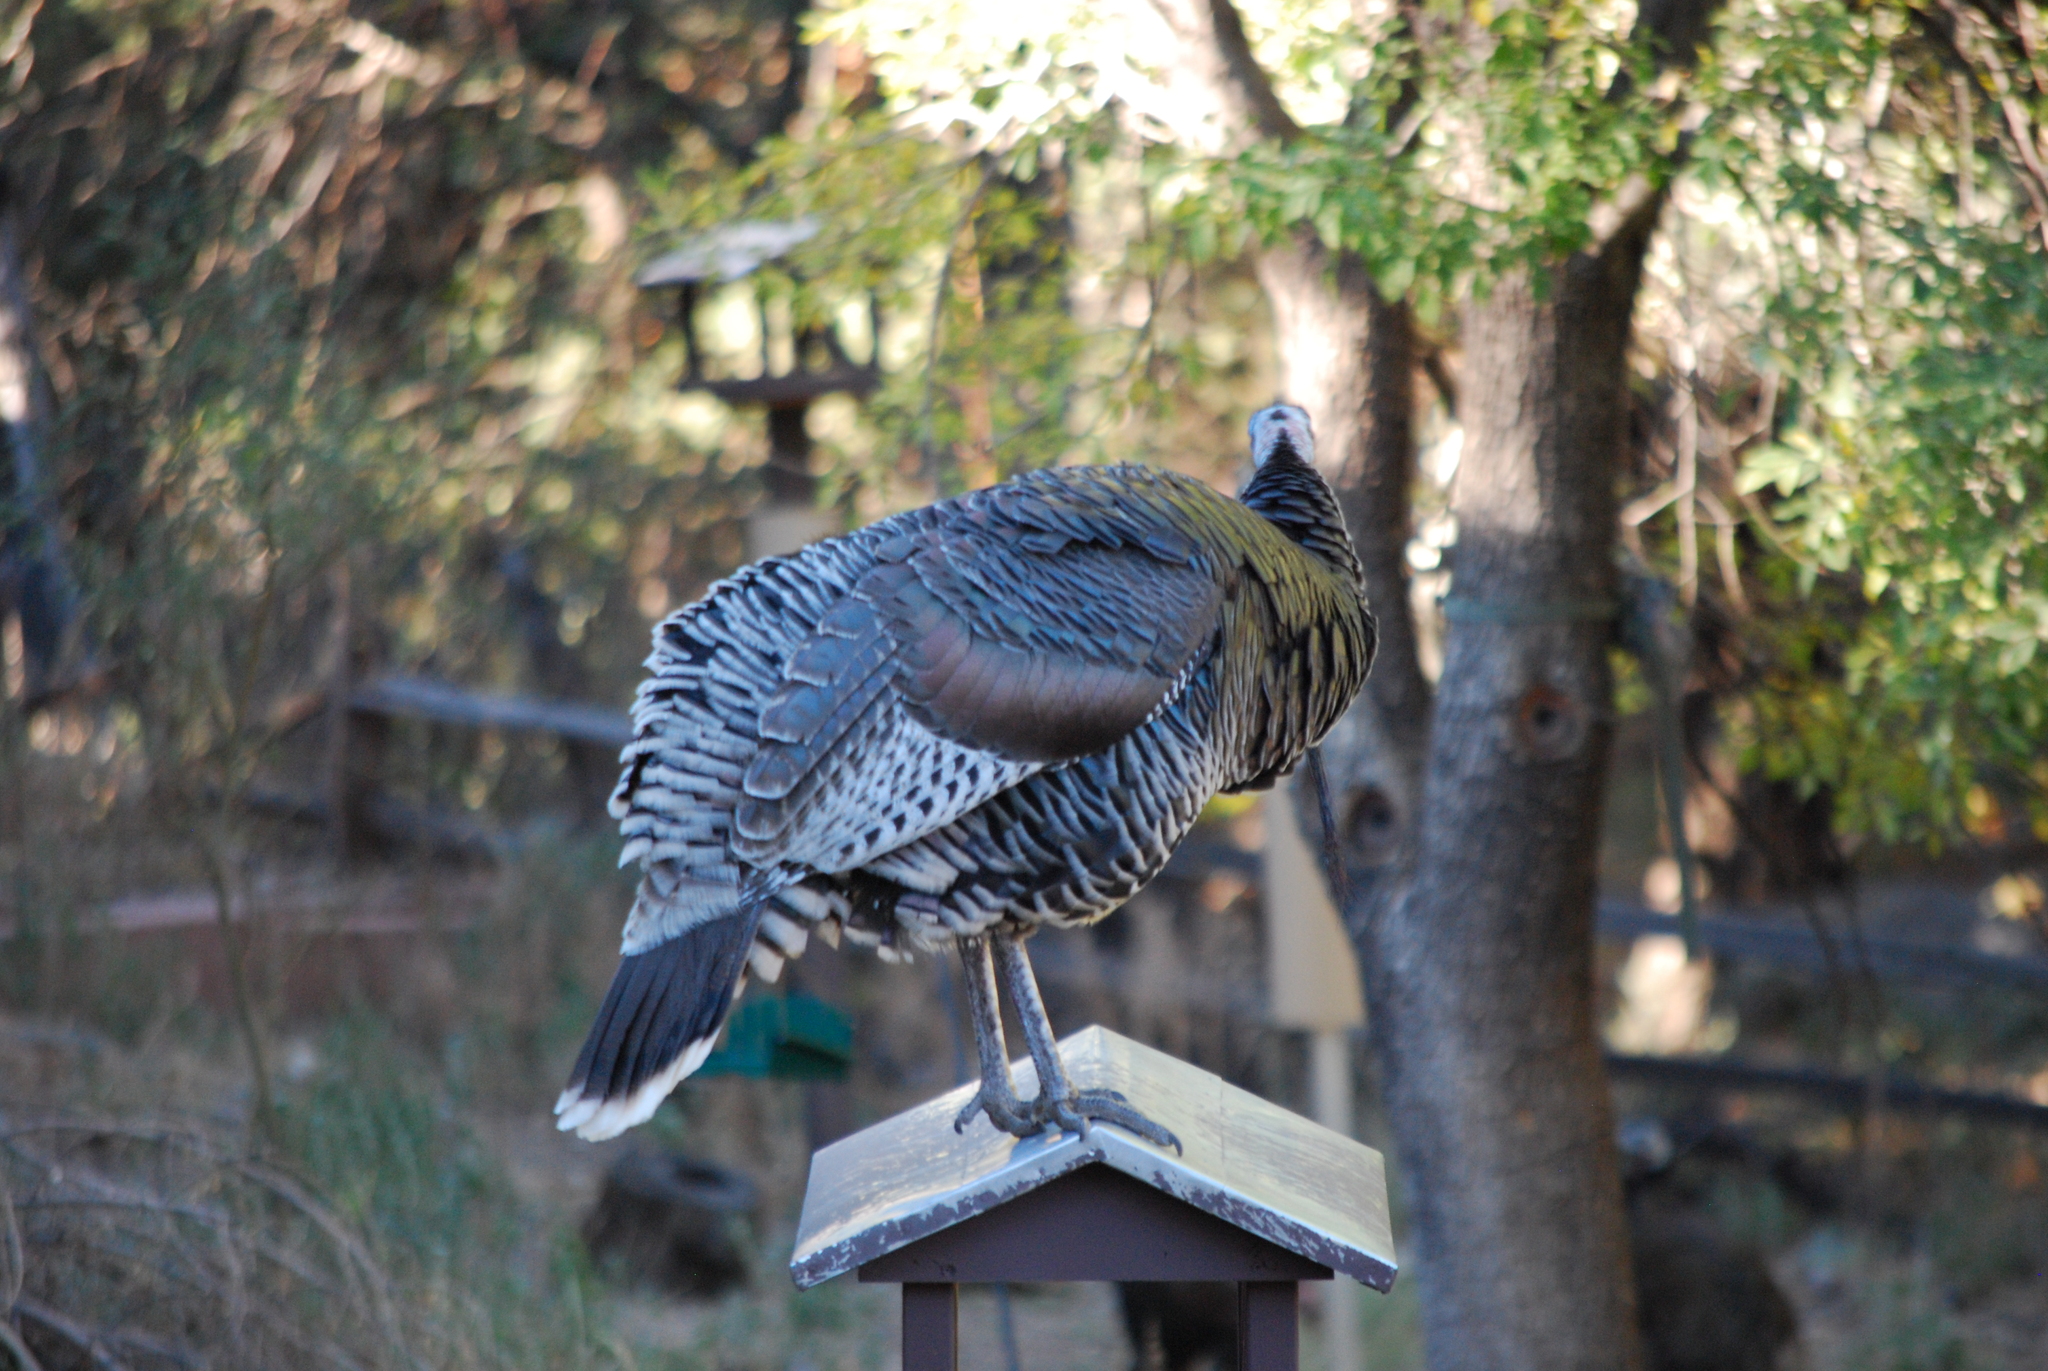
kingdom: Animalia
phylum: Chordata
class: Aves
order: Galliformes
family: Phasianidae
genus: Meleagris
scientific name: Meleagris gallopavo
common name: Wild turkey
